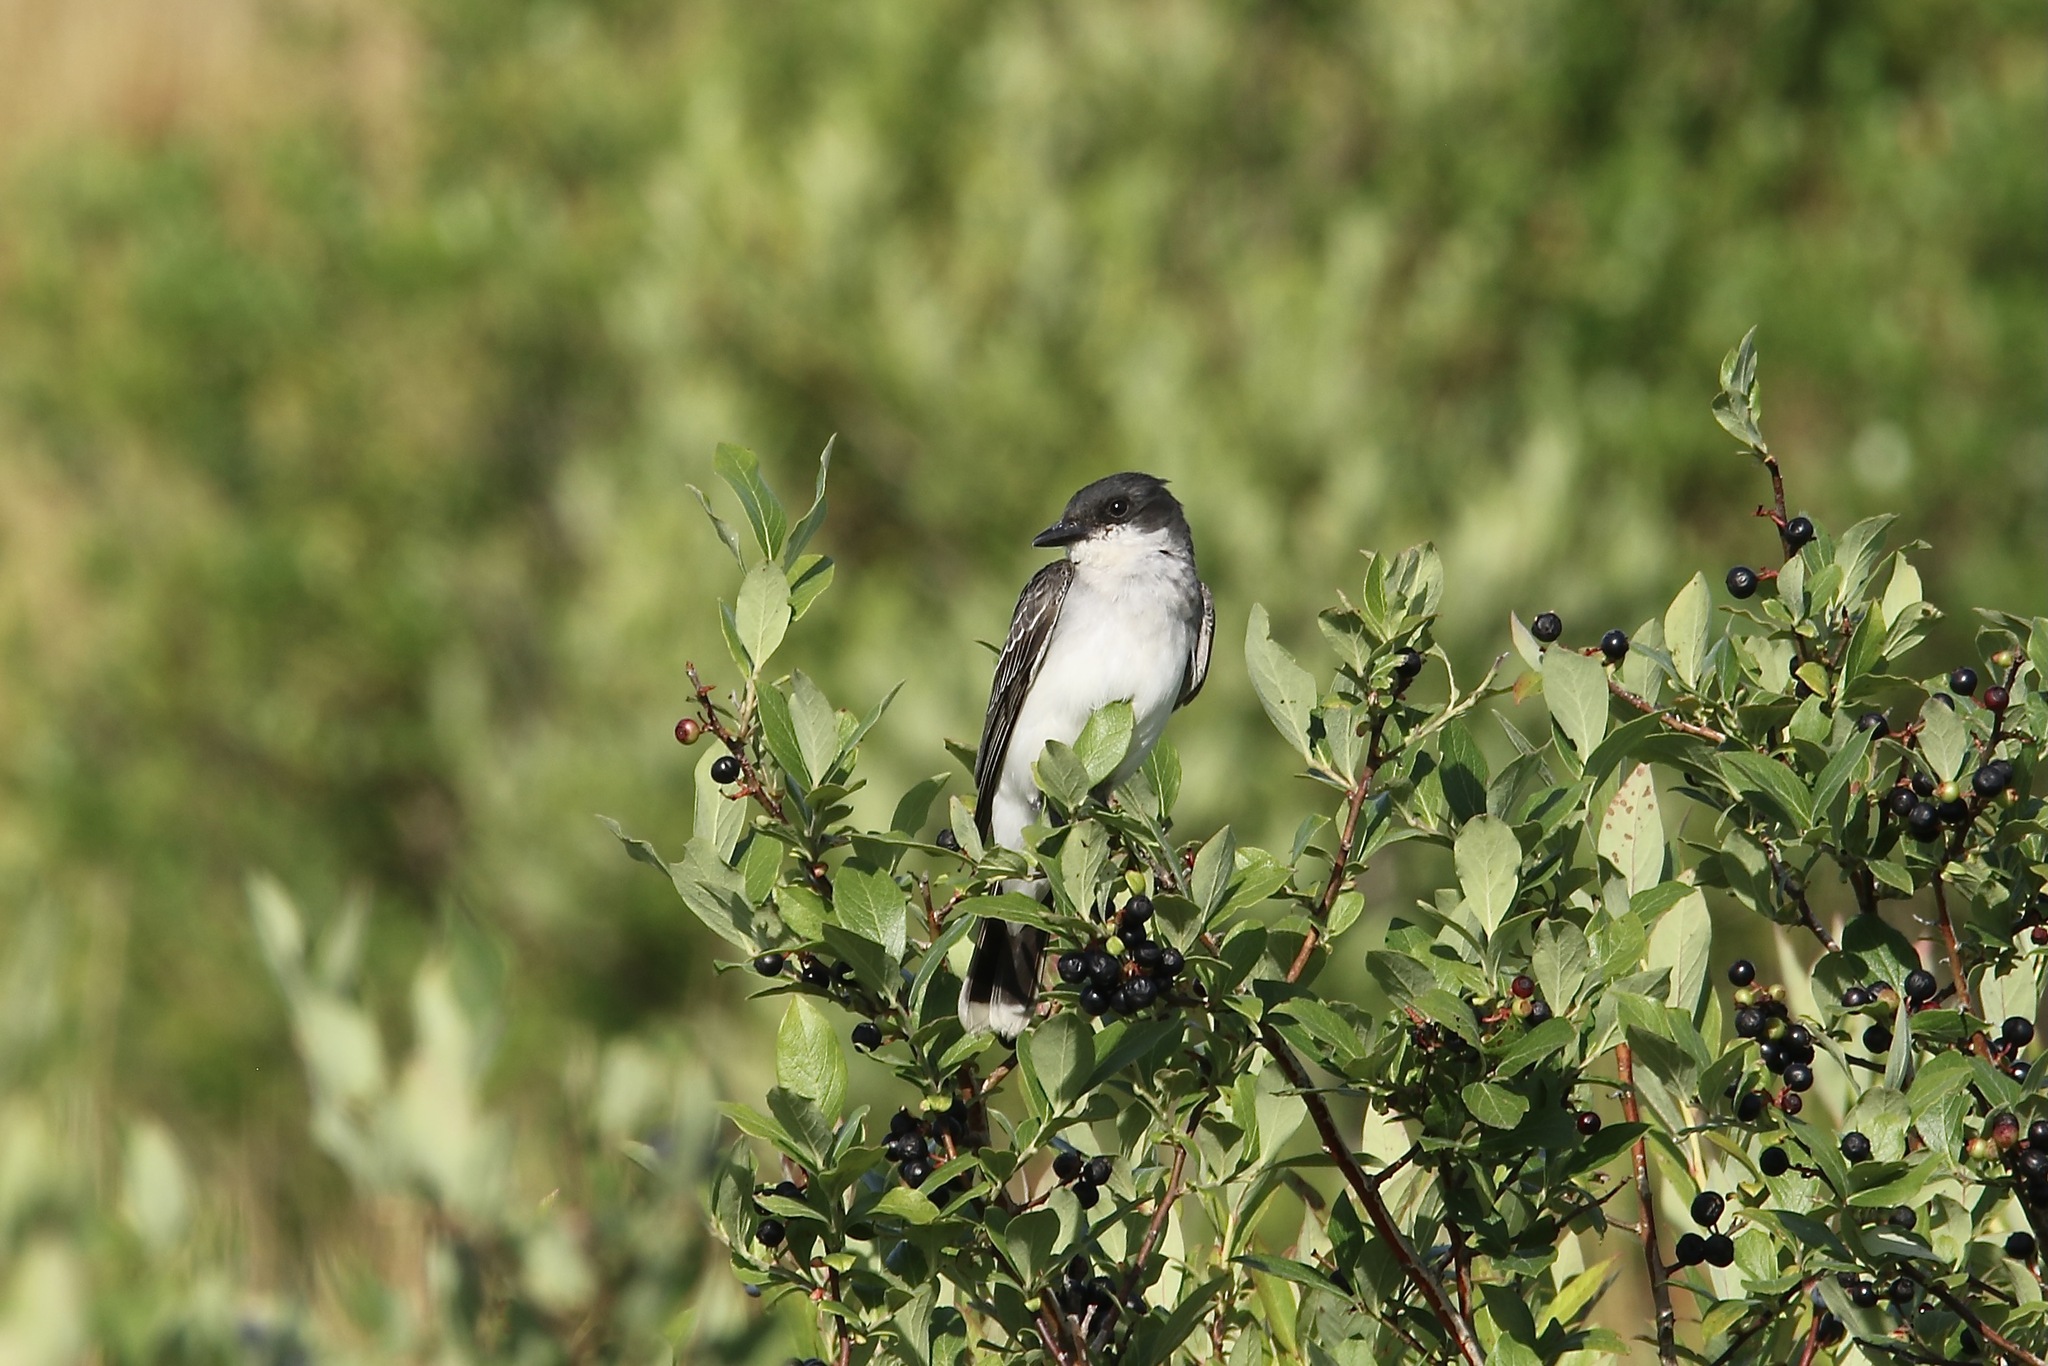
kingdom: Animalia
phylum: Chordata
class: Aves
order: Passeriformes
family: Tyrannidae
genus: Tyrannus
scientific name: Tyrannus tyrannus
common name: Eastern kingbird
